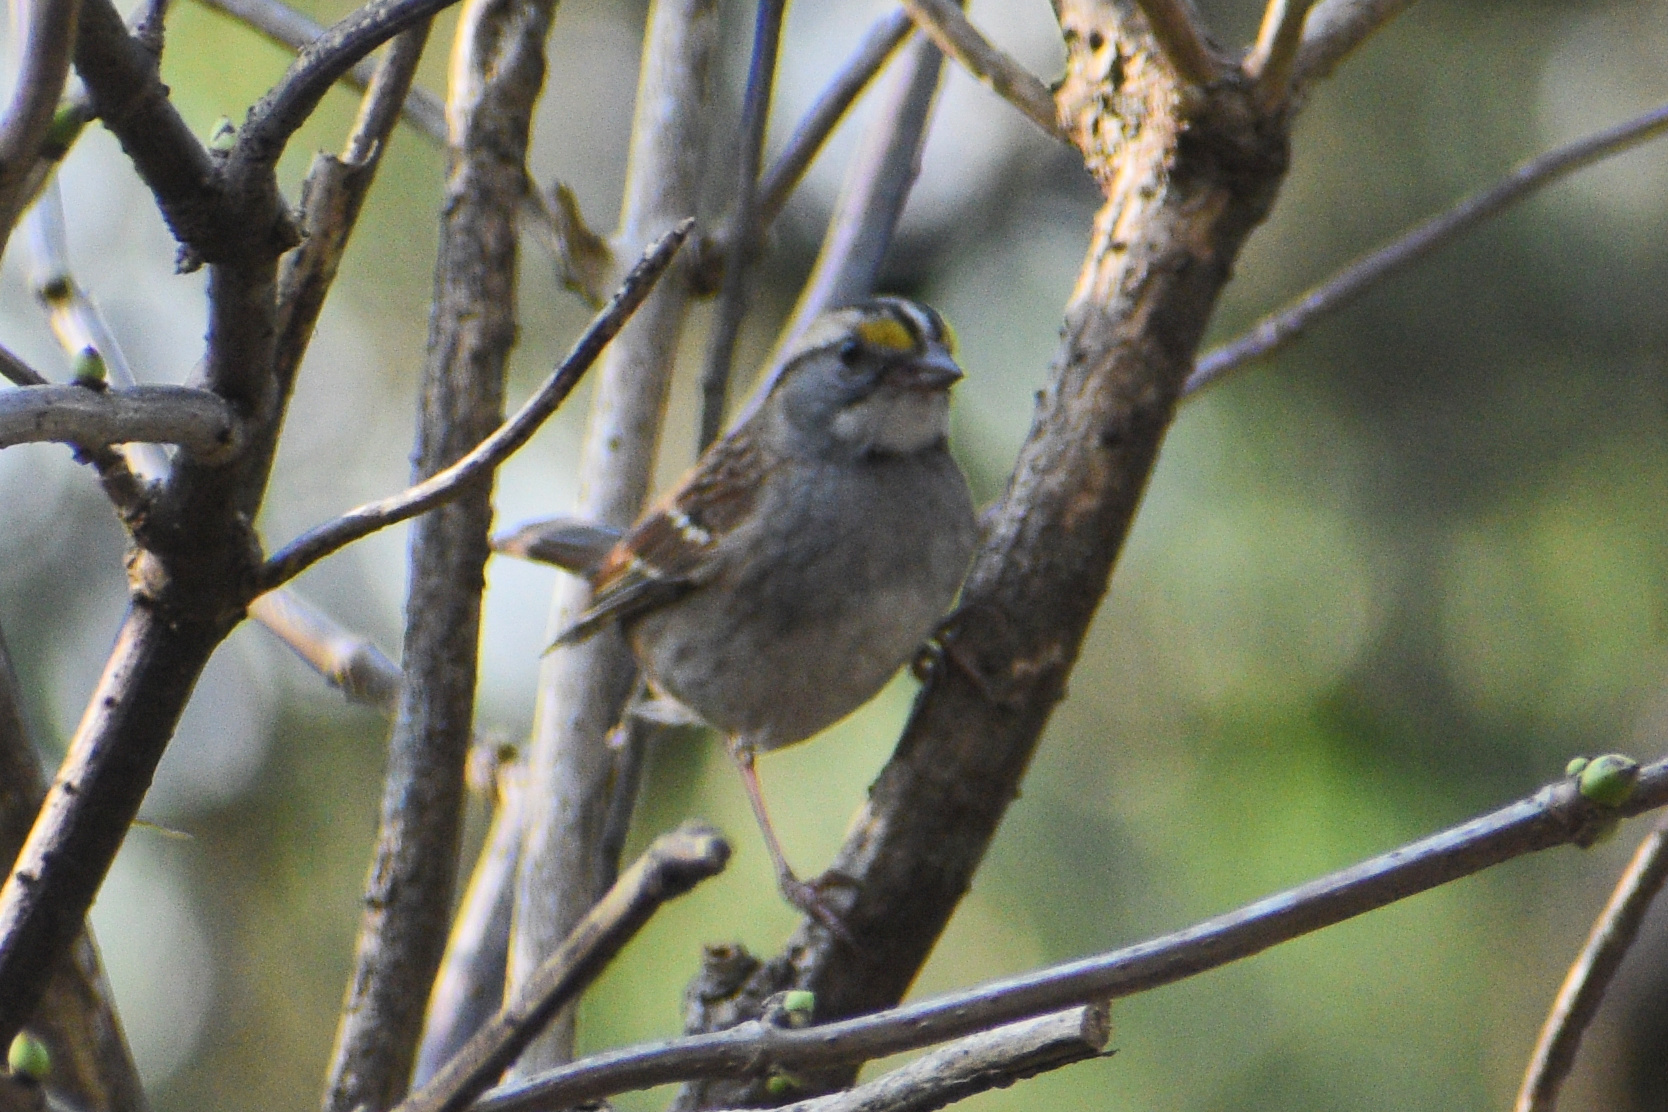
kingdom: Animalia
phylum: Chordata
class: Aves
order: Passeriformes
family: Passerellidae
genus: Zonotrichia
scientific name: Zonotrichia albicollis
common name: White-throated sparrow
